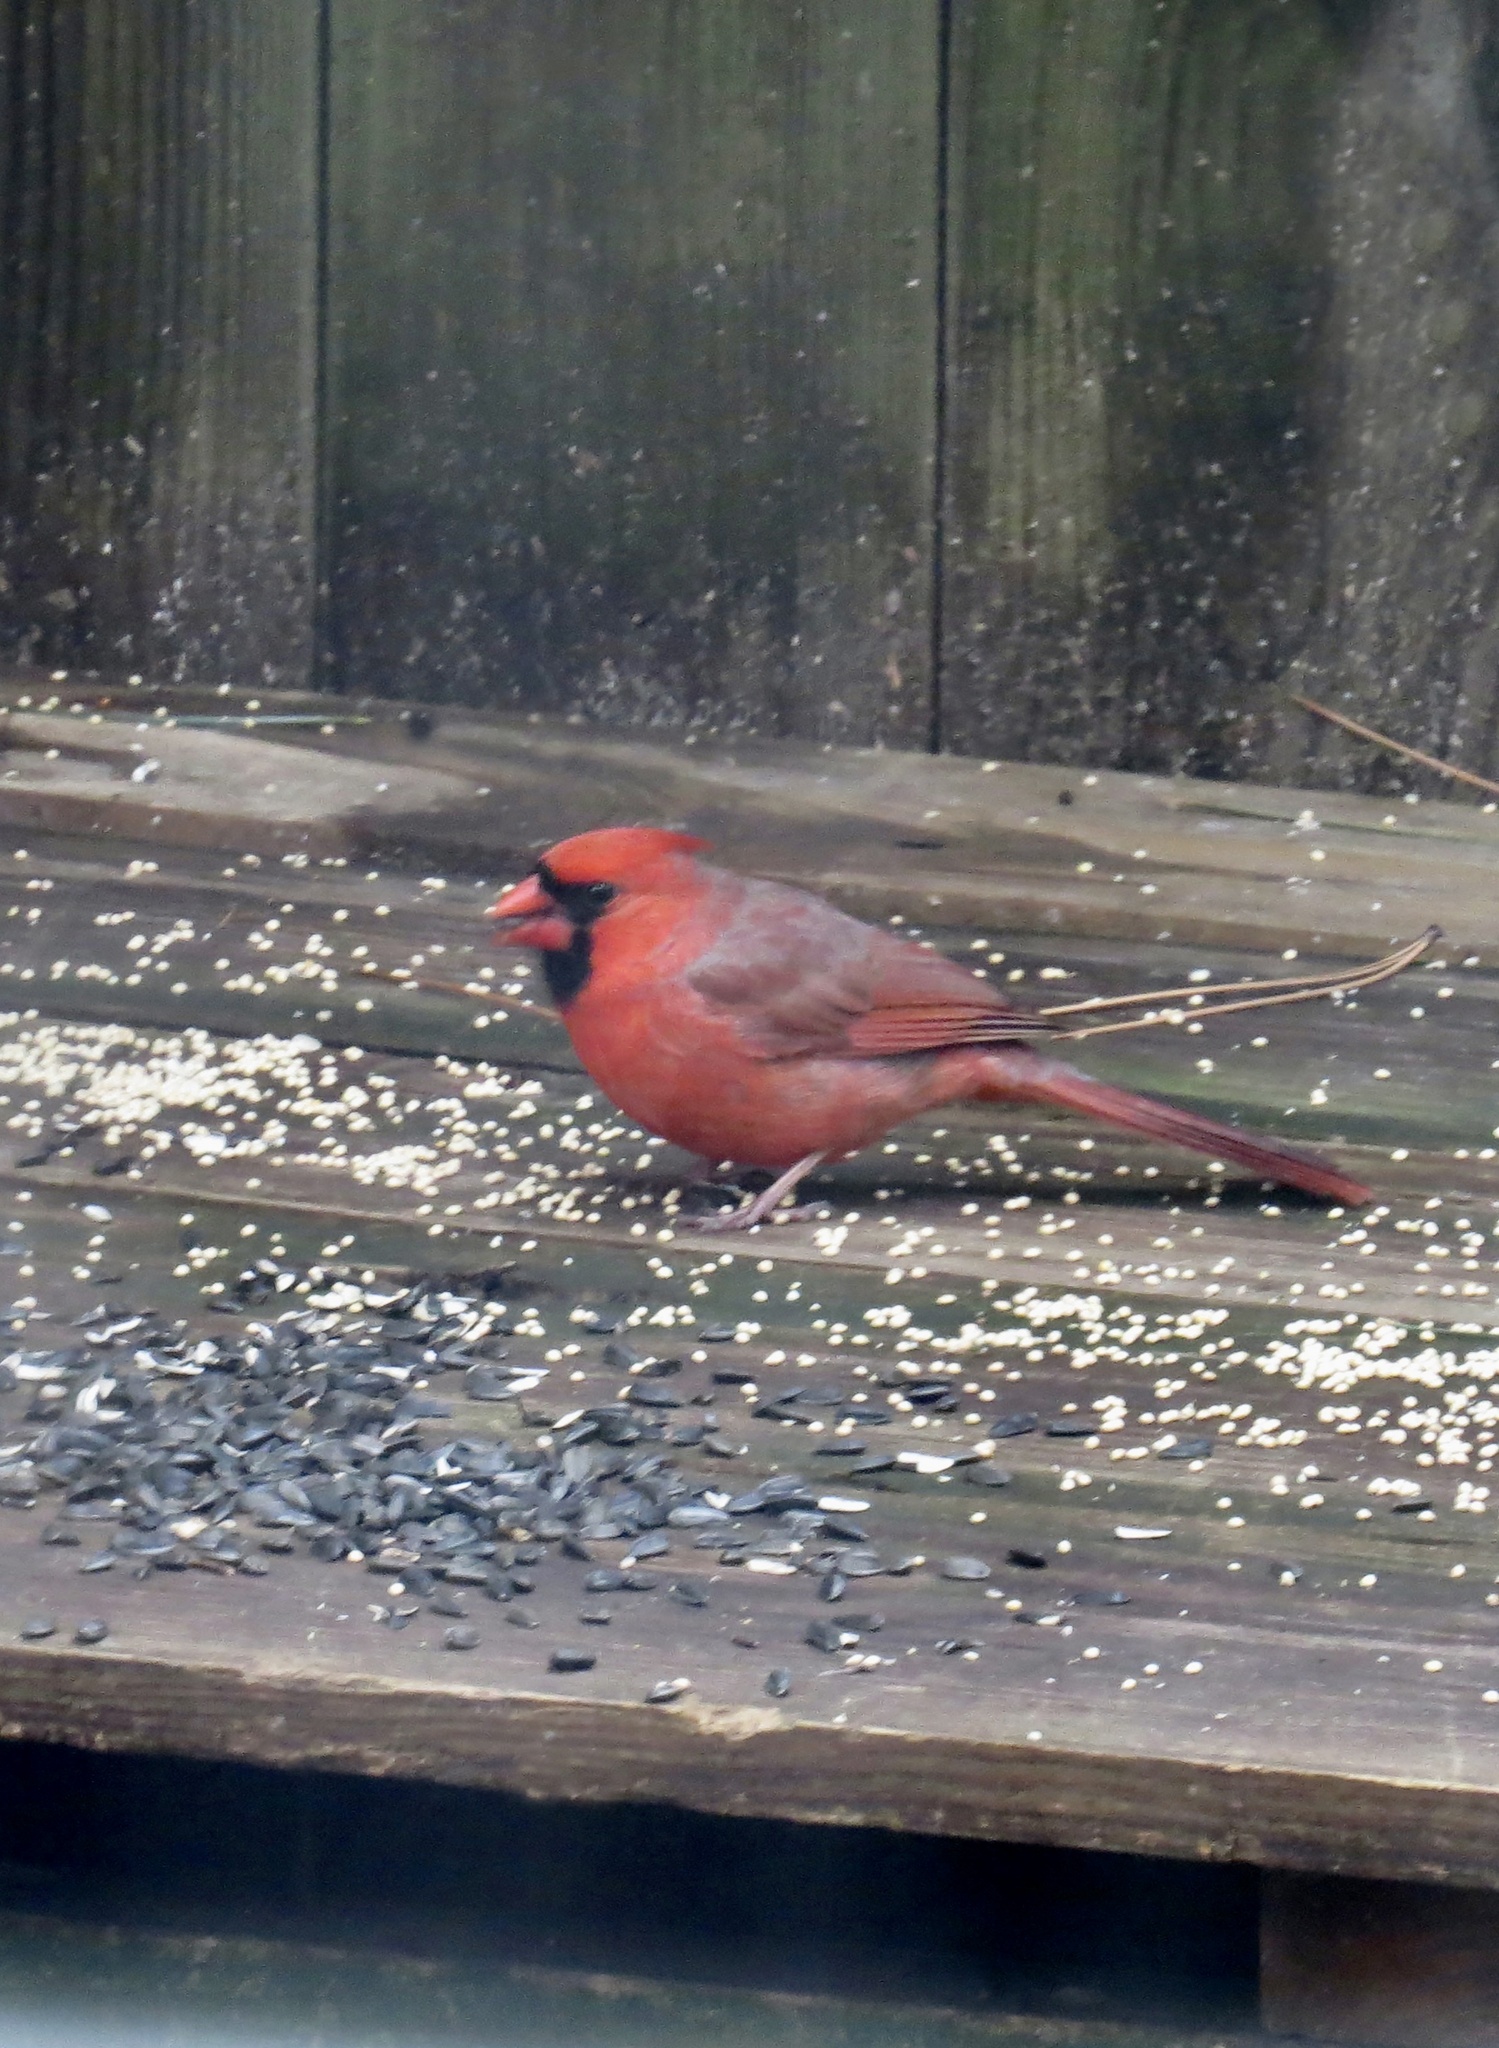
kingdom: Animalia
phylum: Chordata
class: Aves
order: Passeriformes
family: Cardinalidae
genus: Cardinalis
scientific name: Cardinalis cardinalis
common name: Northern cardinal
